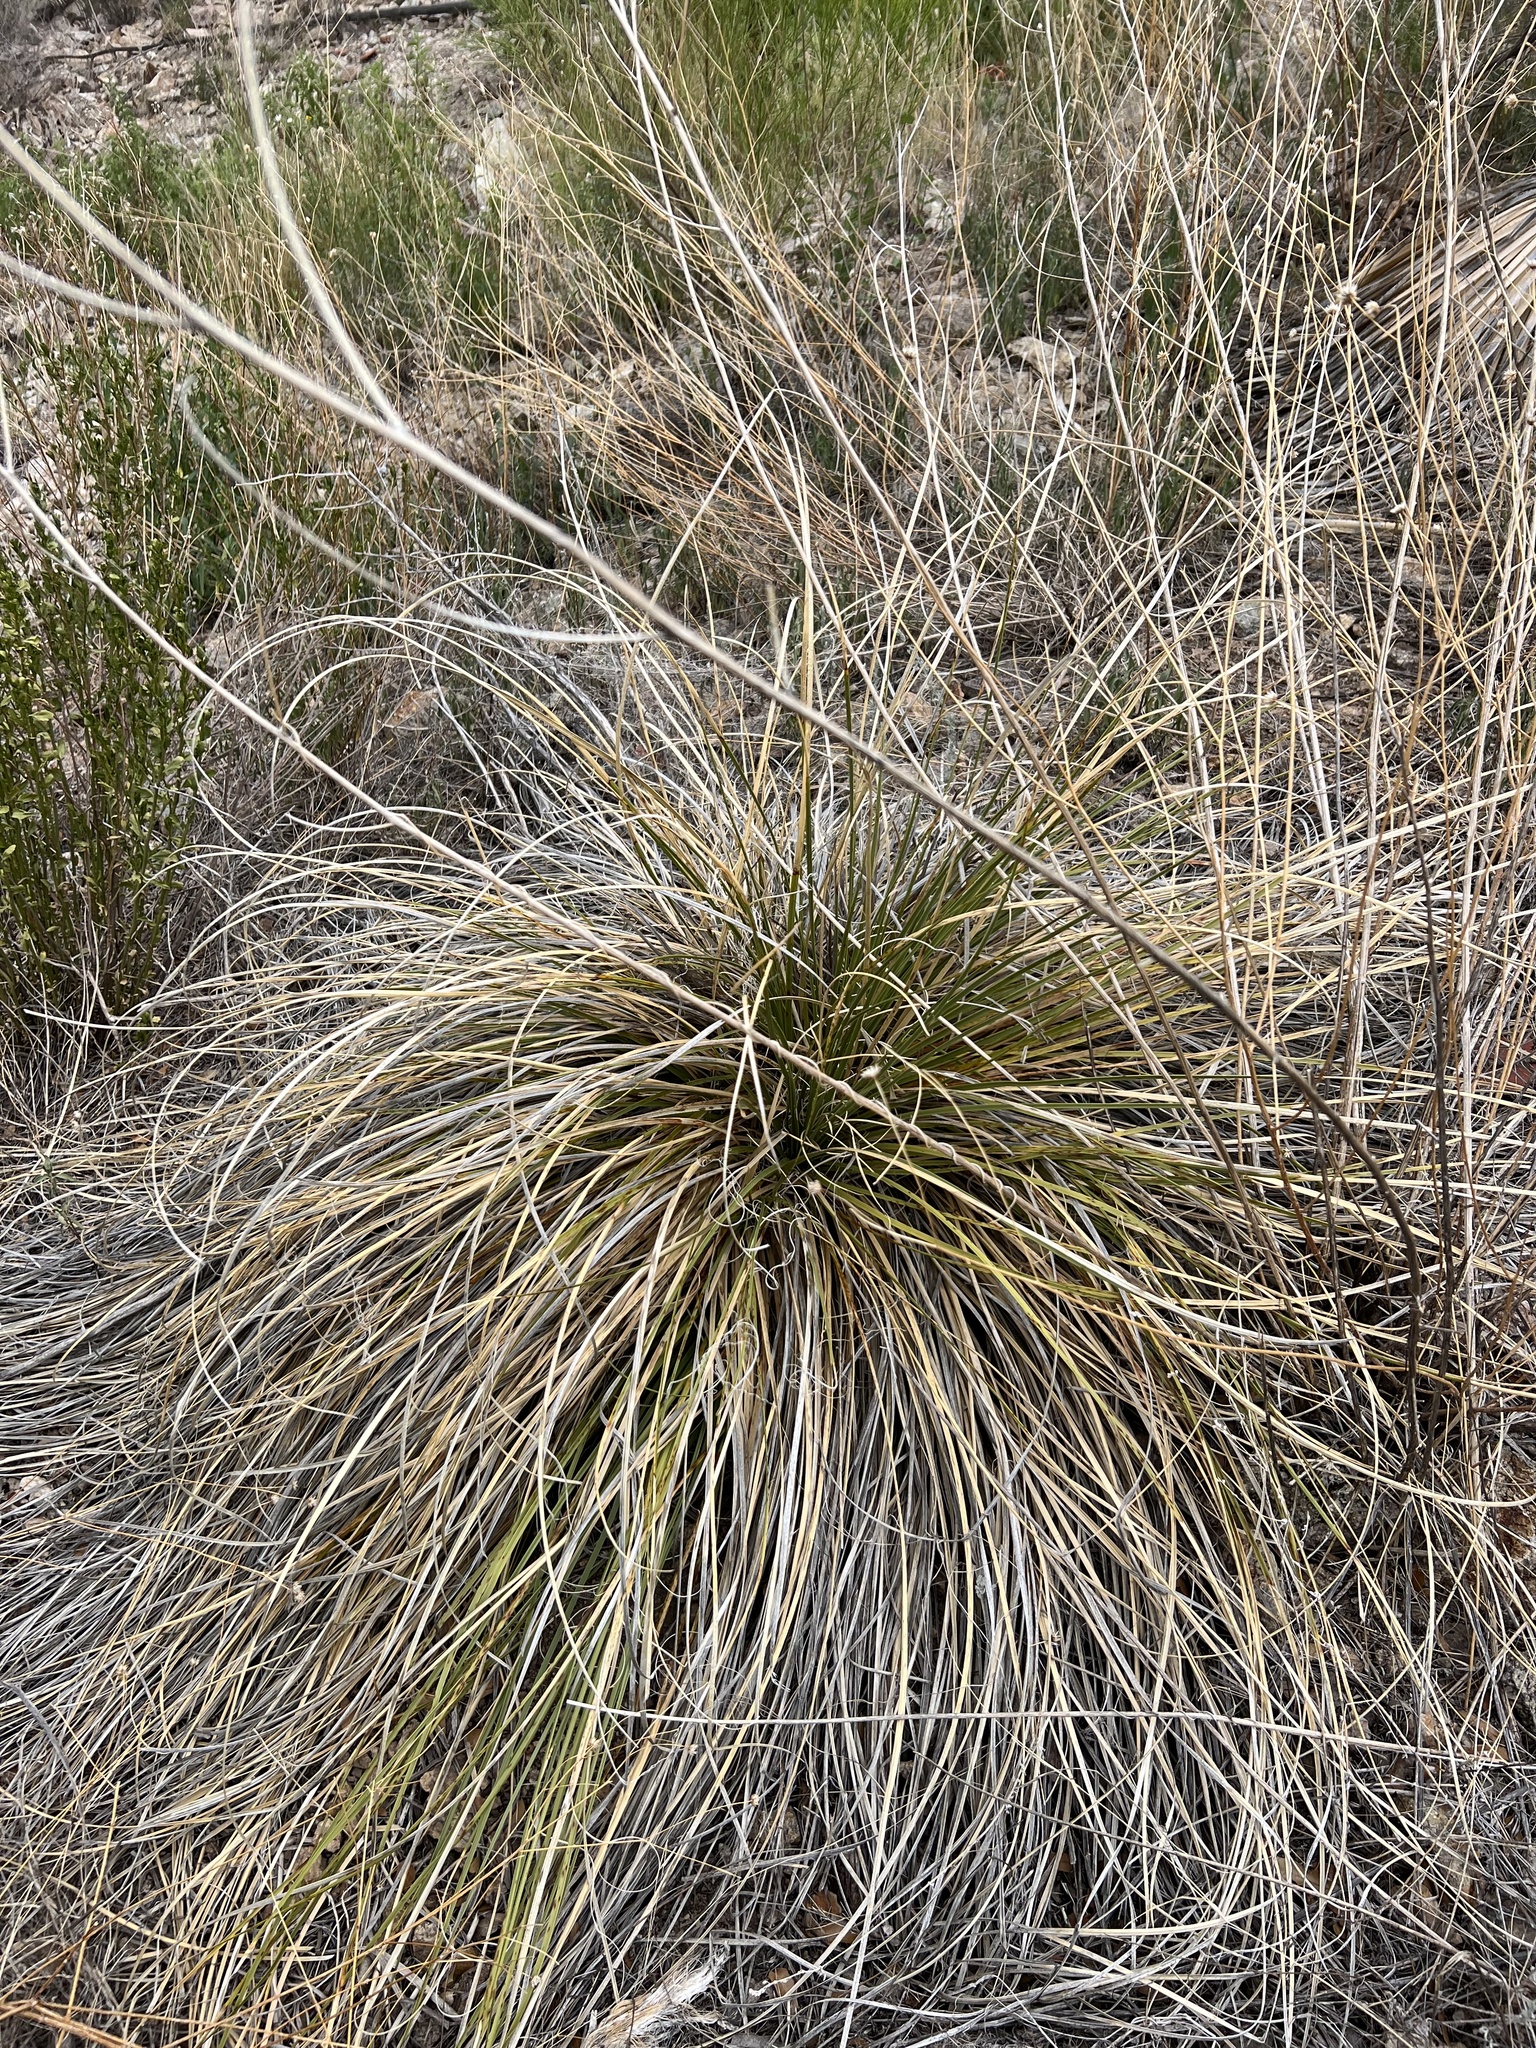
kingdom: Plantae
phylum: Tracheophyta
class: Liliopsida
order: Asparagales
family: Asparagaceae
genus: Nolina
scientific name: Nolina microcarpa
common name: Bear-grass
